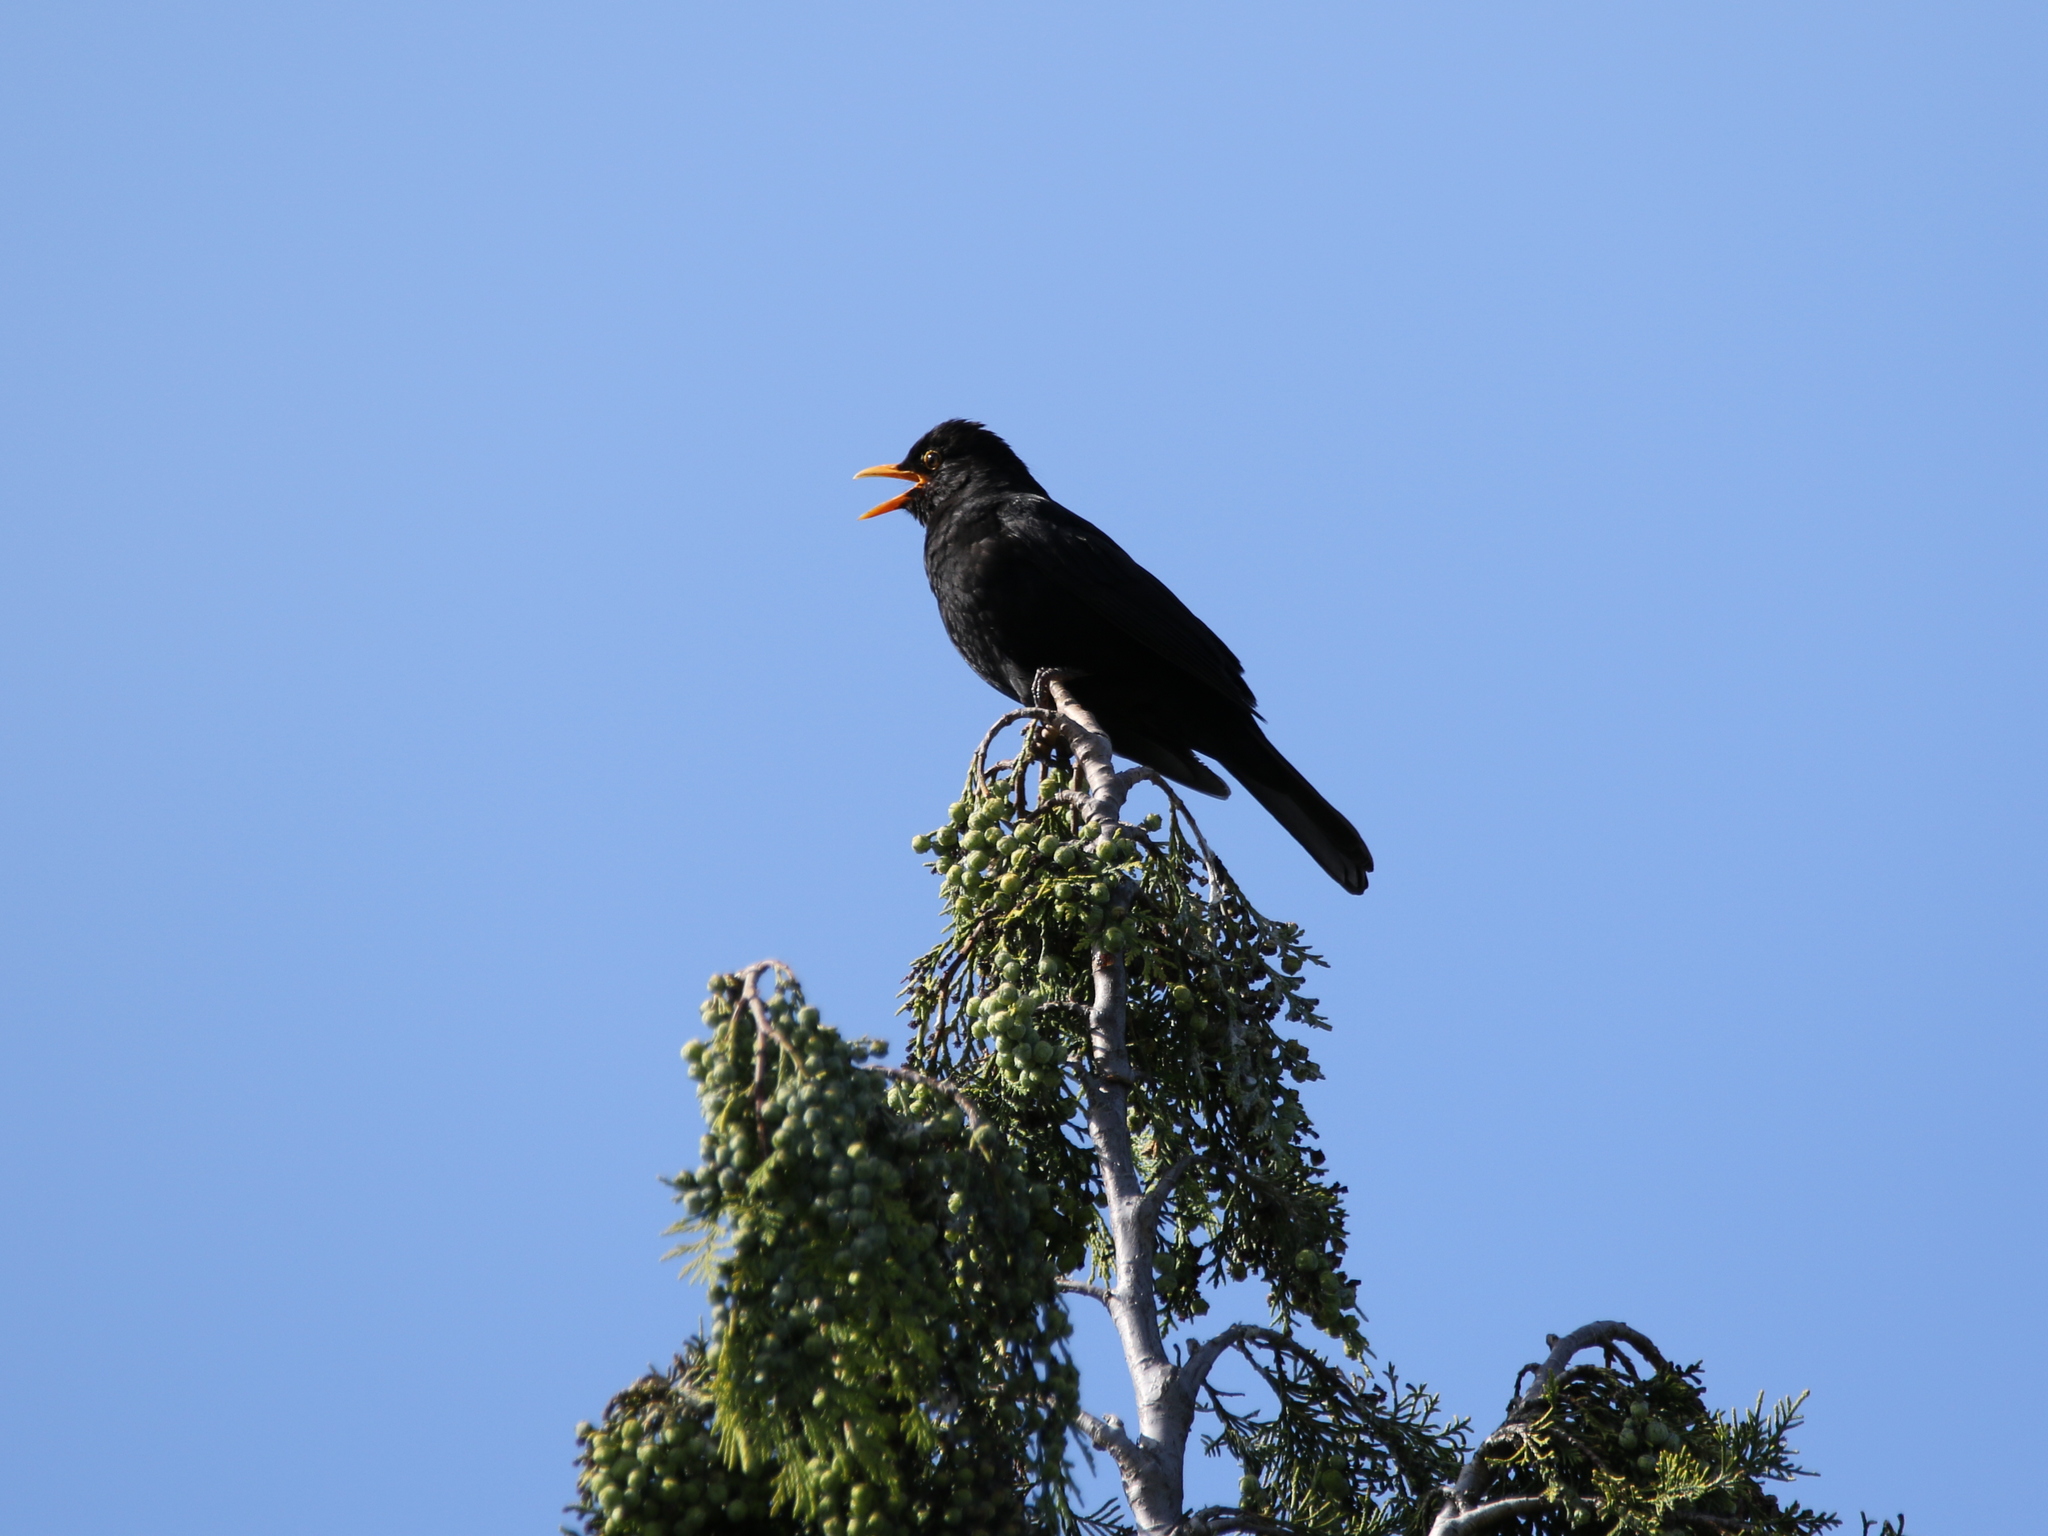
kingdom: Animalia
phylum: Chordata
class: Aves
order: Passeriformes
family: Turdidae
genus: Turdus
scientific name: Turdus merula
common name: Common blackbird
